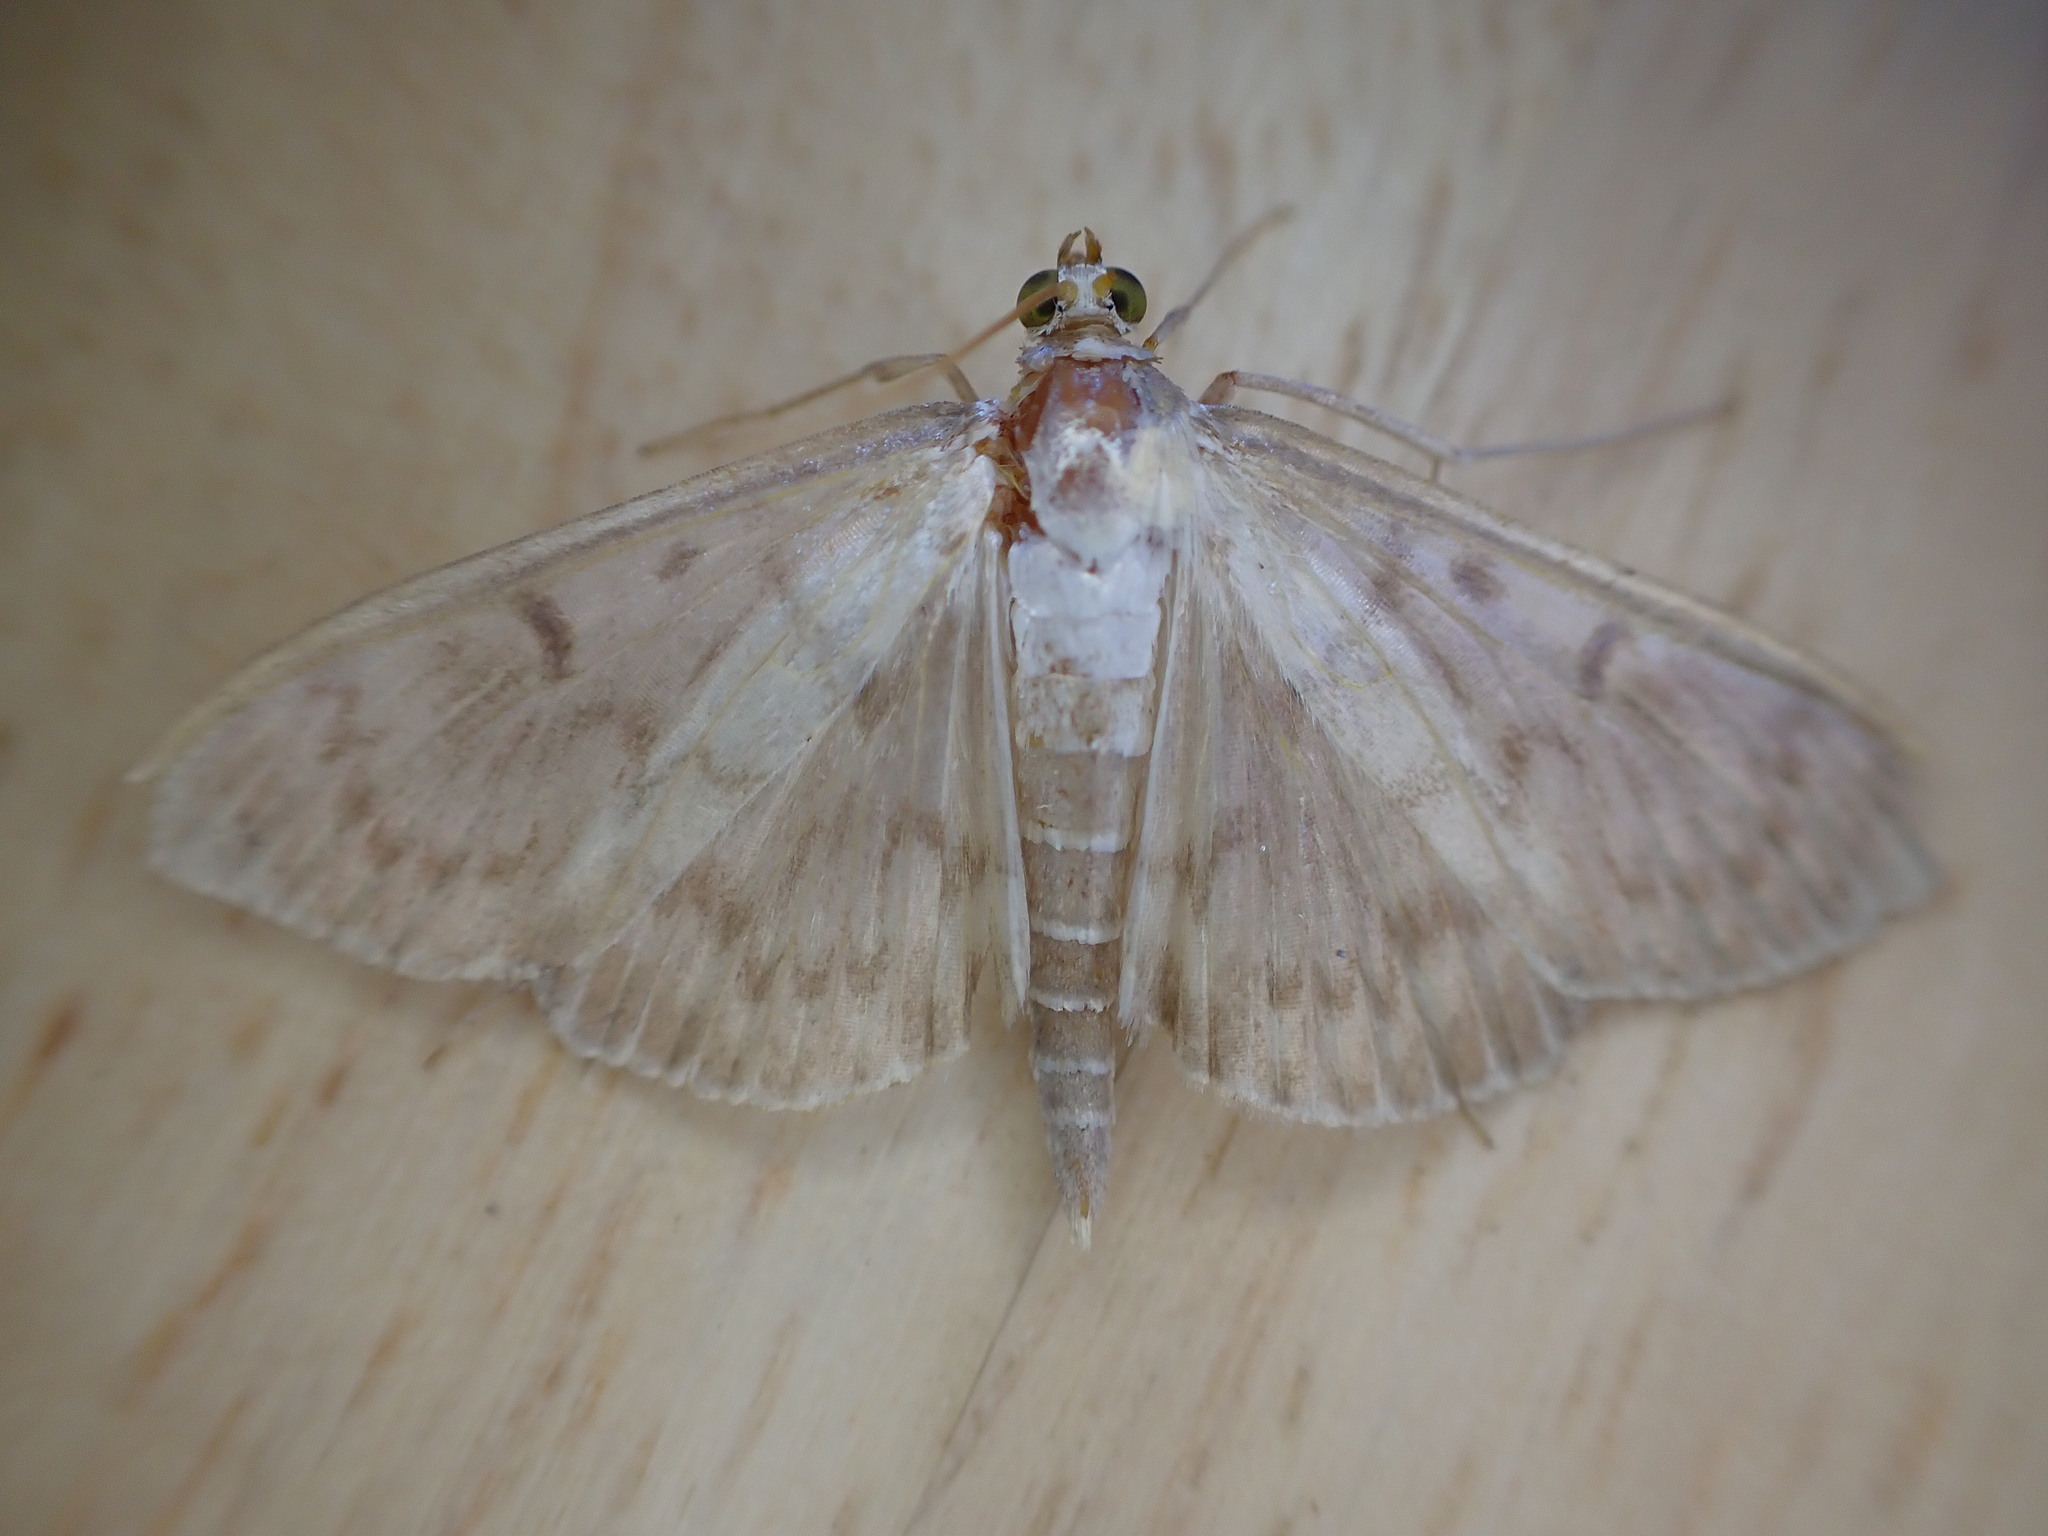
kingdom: Animalia
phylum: Arthropoda
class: Insecta
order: Lepidoptera
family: Crambidae
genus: Patania
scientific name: Patania ruralis
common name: Mother of pearl
